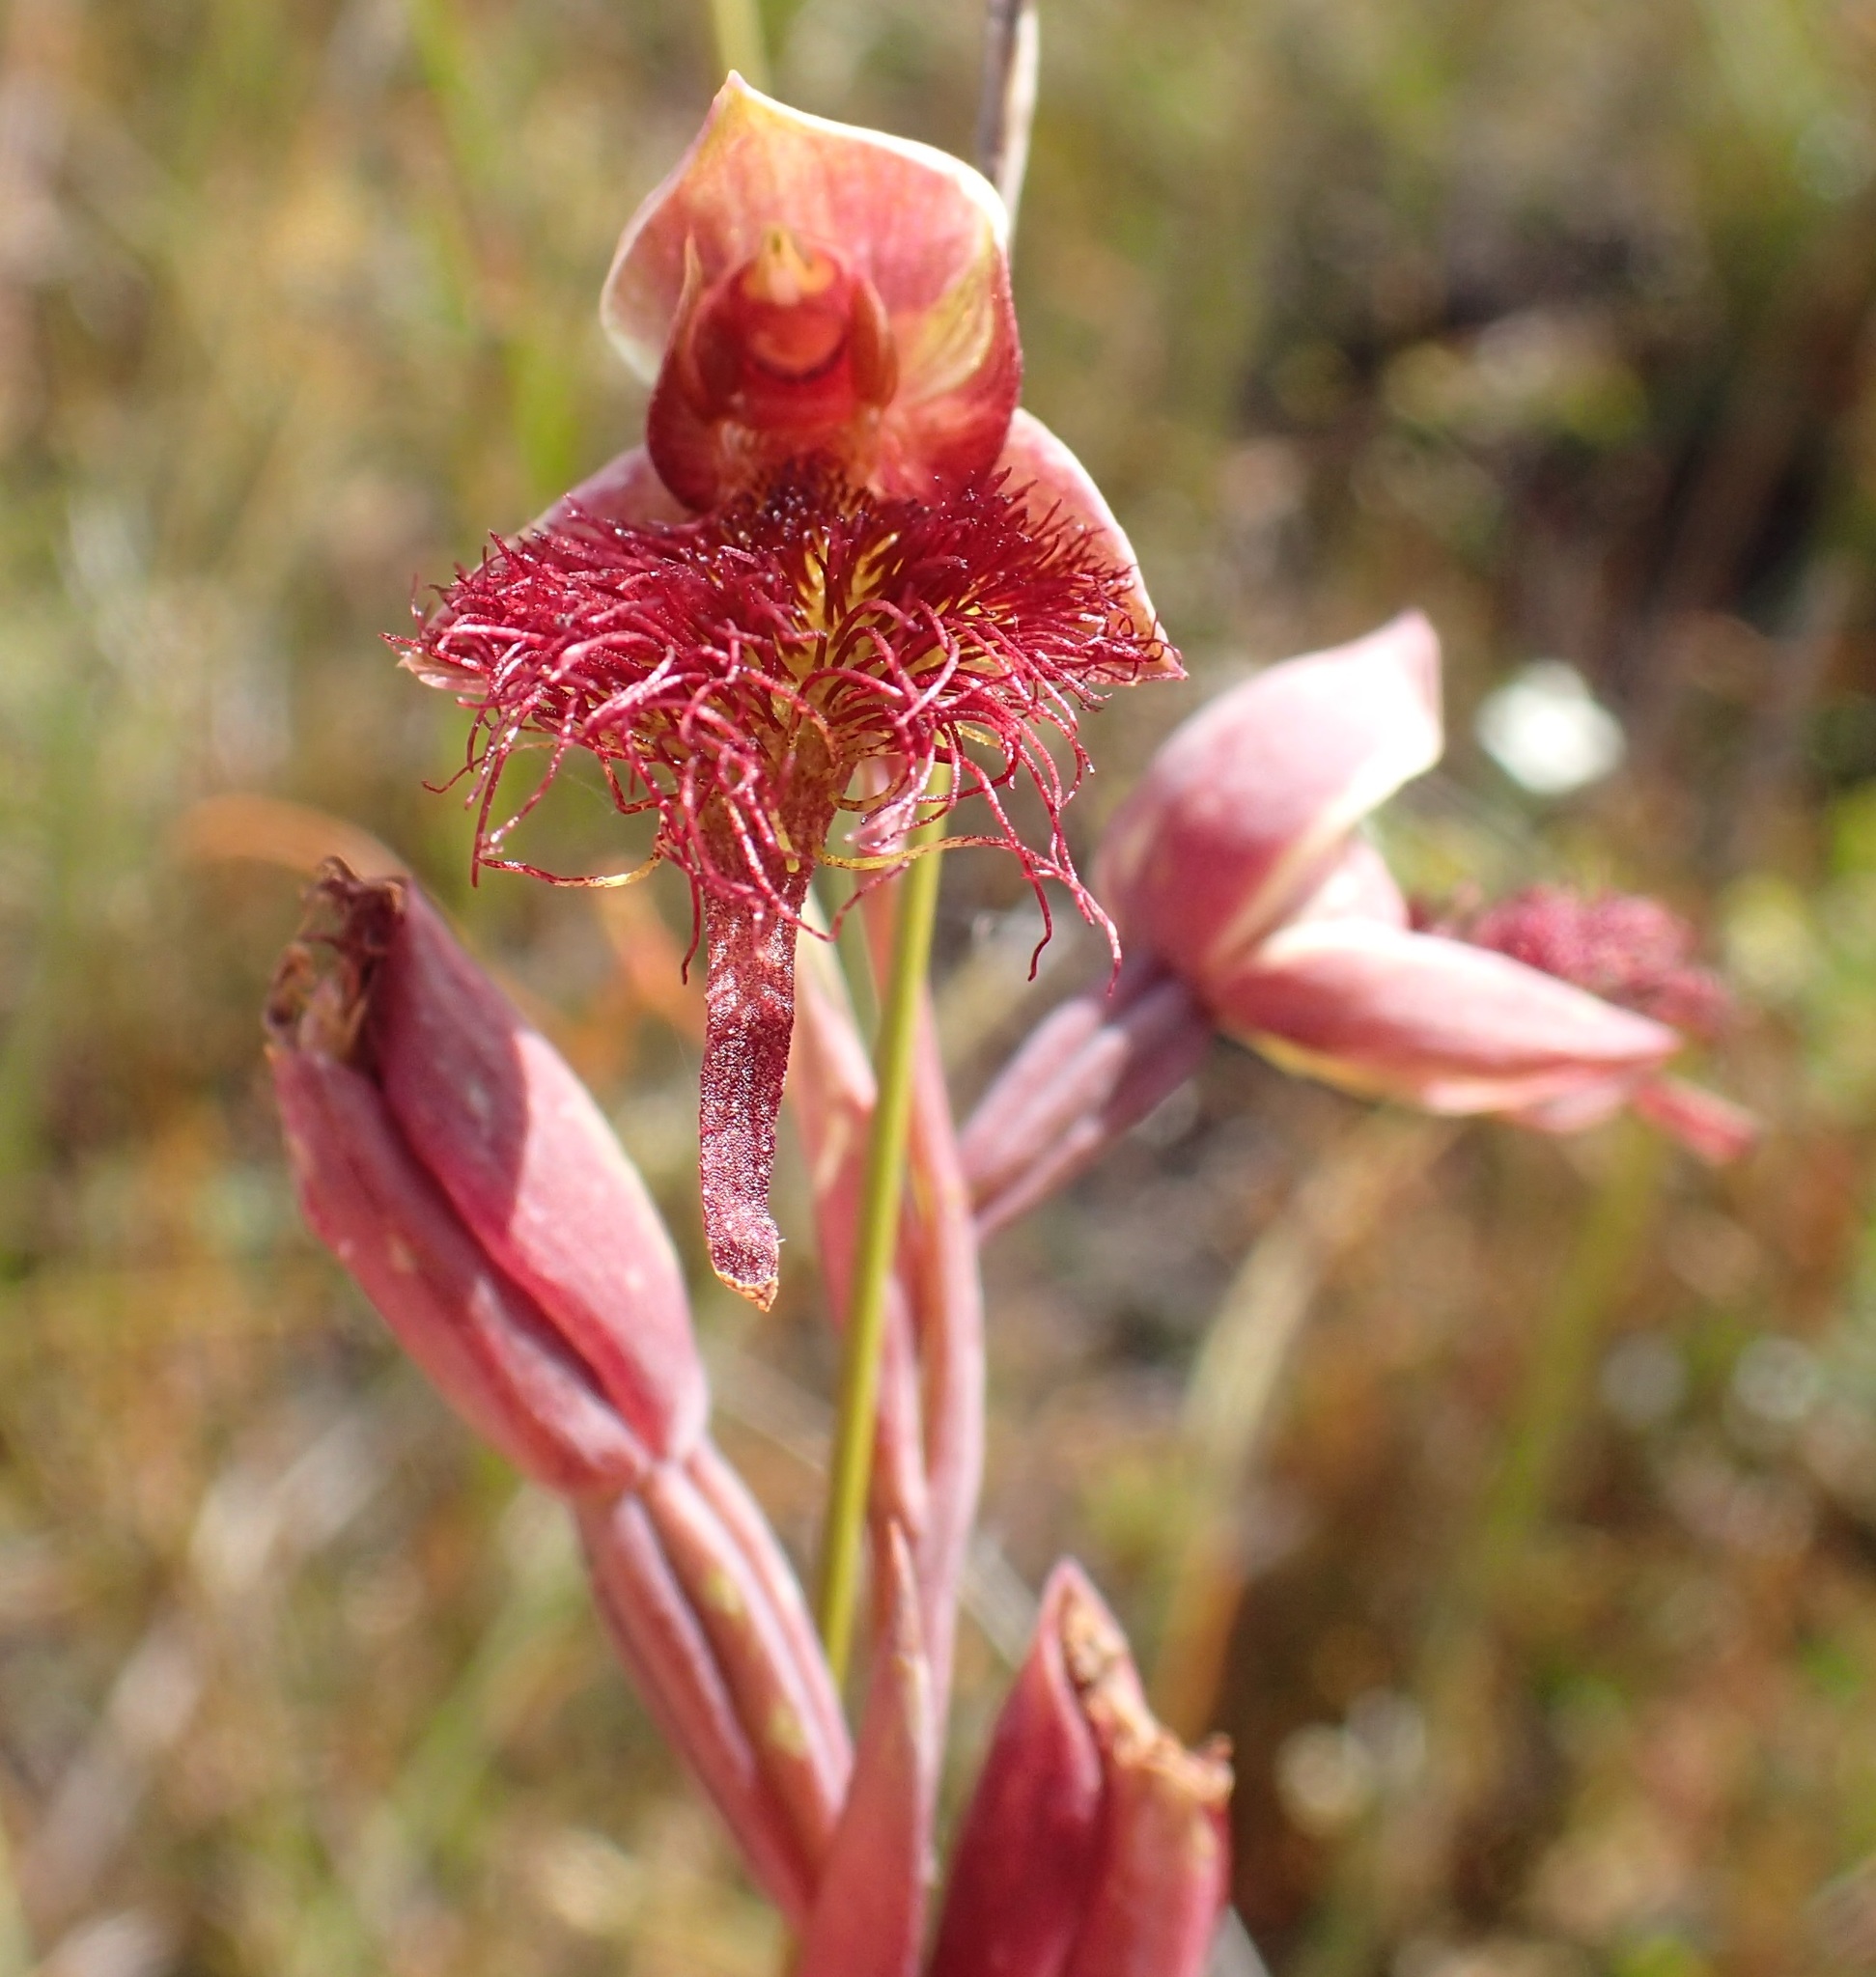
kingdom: Plantae
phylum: Tracheophyta
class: Liliopsida
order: Asparagales
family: Orchidaceae
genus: Calochilus
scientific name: Calochilus paludosus
